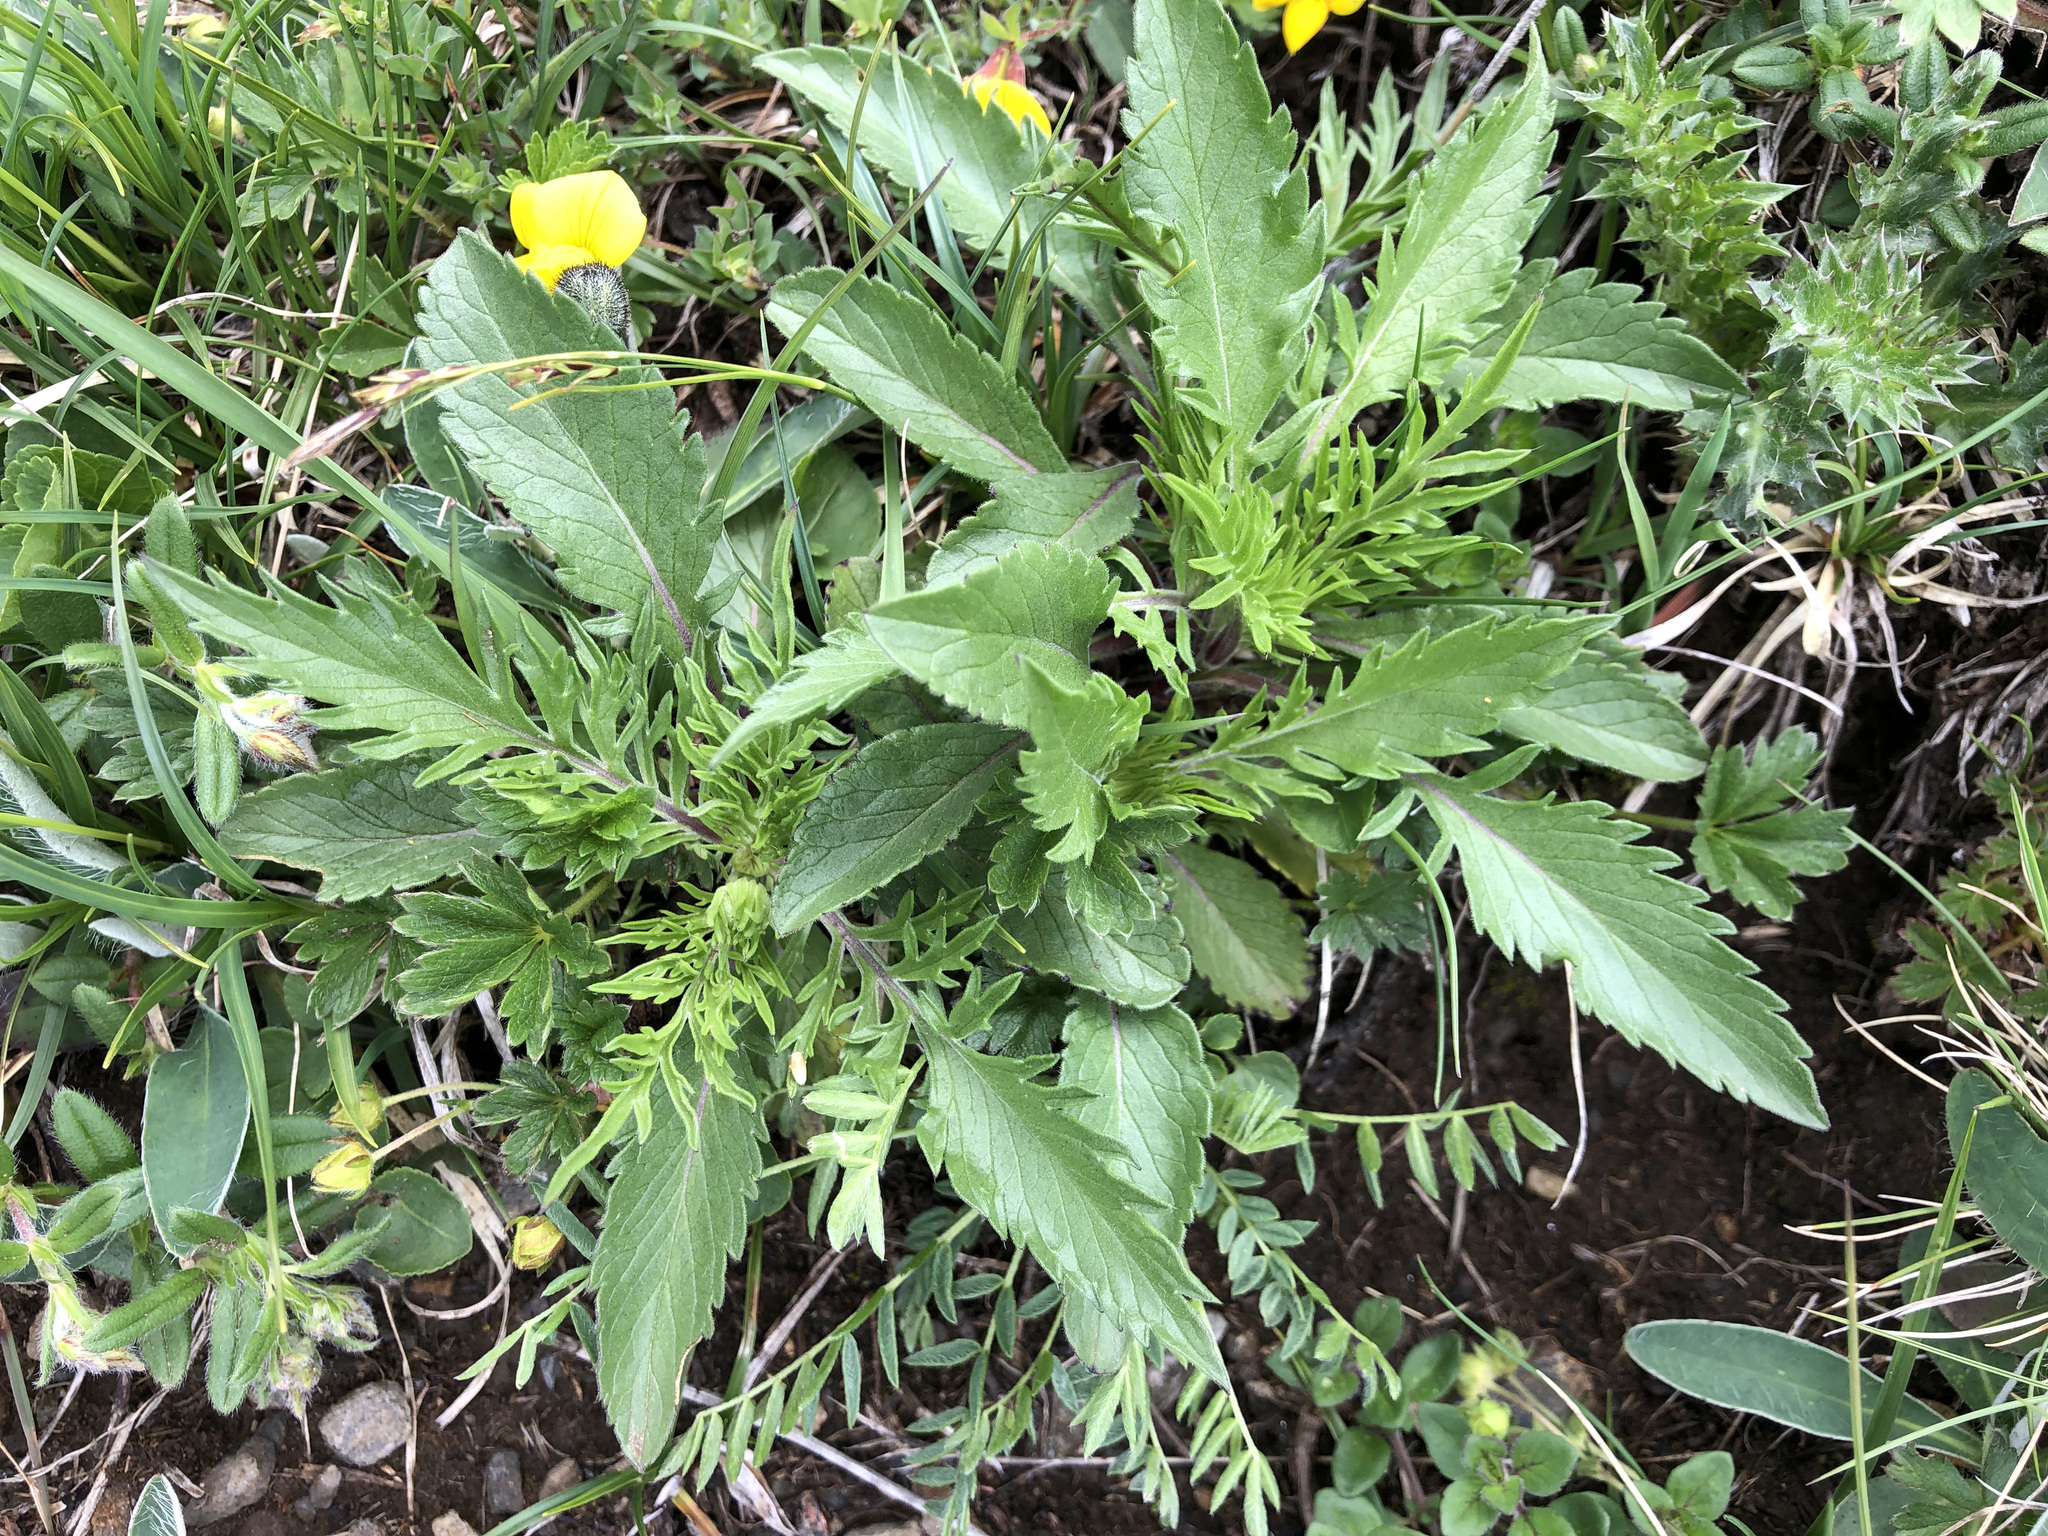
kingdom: Plantae
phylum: Tracheophyta
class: Magnoliopsida
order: Dipsacales
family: Caprifoliaceae
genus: Scabiosa
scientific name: Scabiosa lucida
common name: Shining scabious
